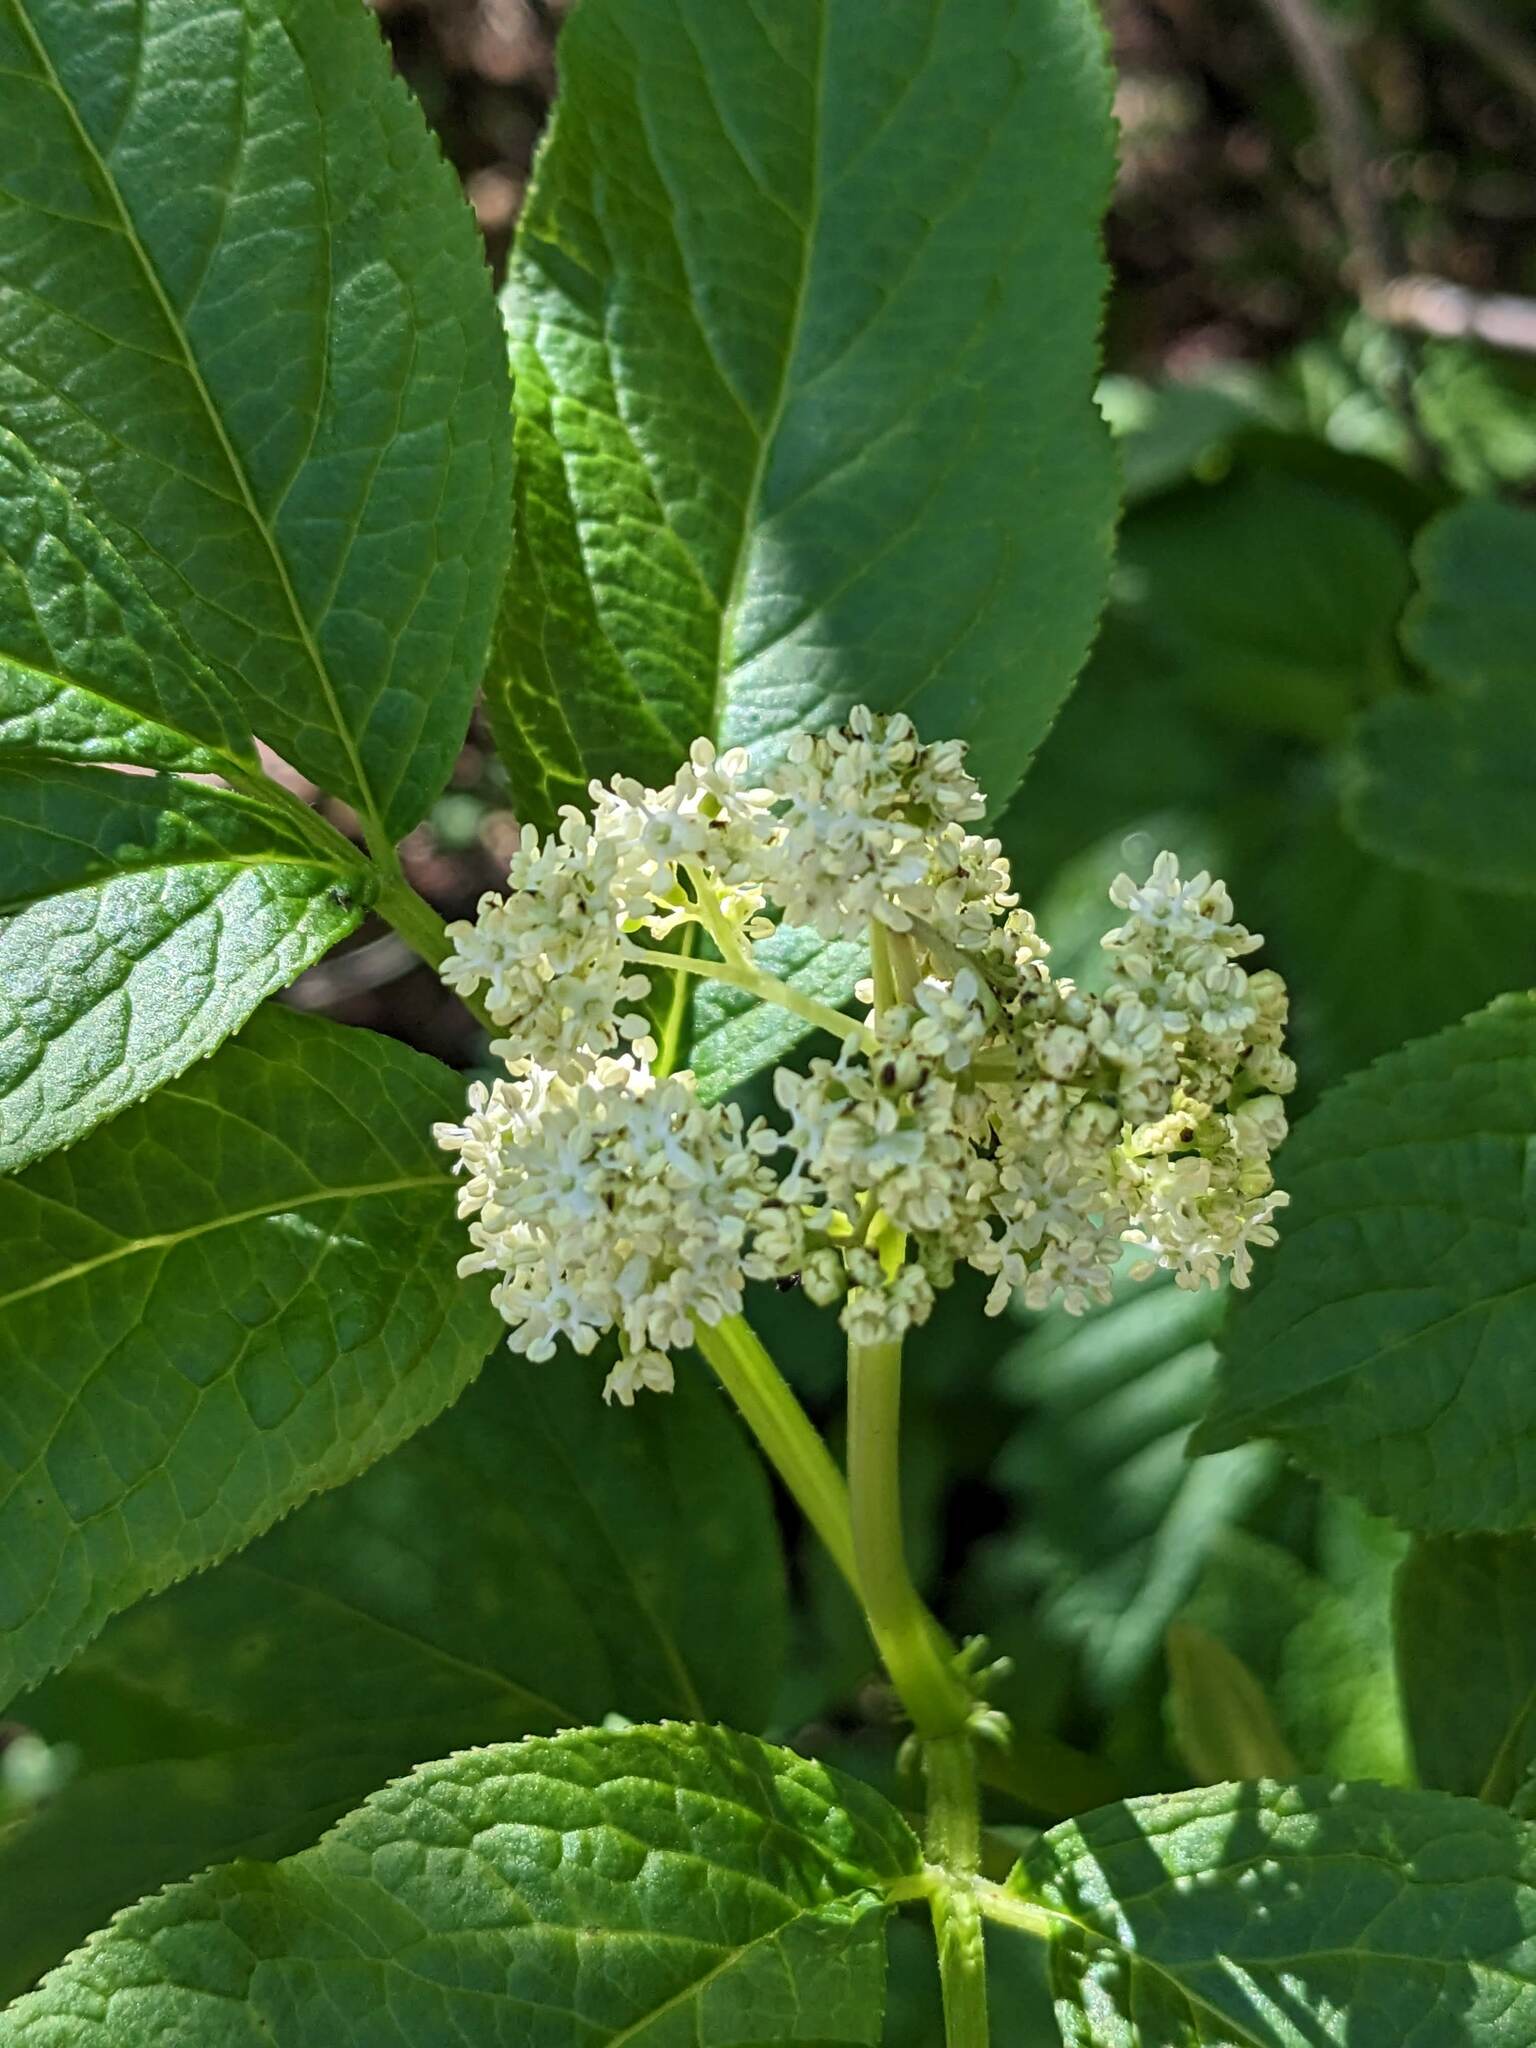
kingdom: Plantae
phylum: Tracheophyta
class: Magnoliopsida
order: Dipsacales
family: Viburnaceae
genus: Sambucus
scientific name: Sambucus racemosa
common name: Red-berried elder
